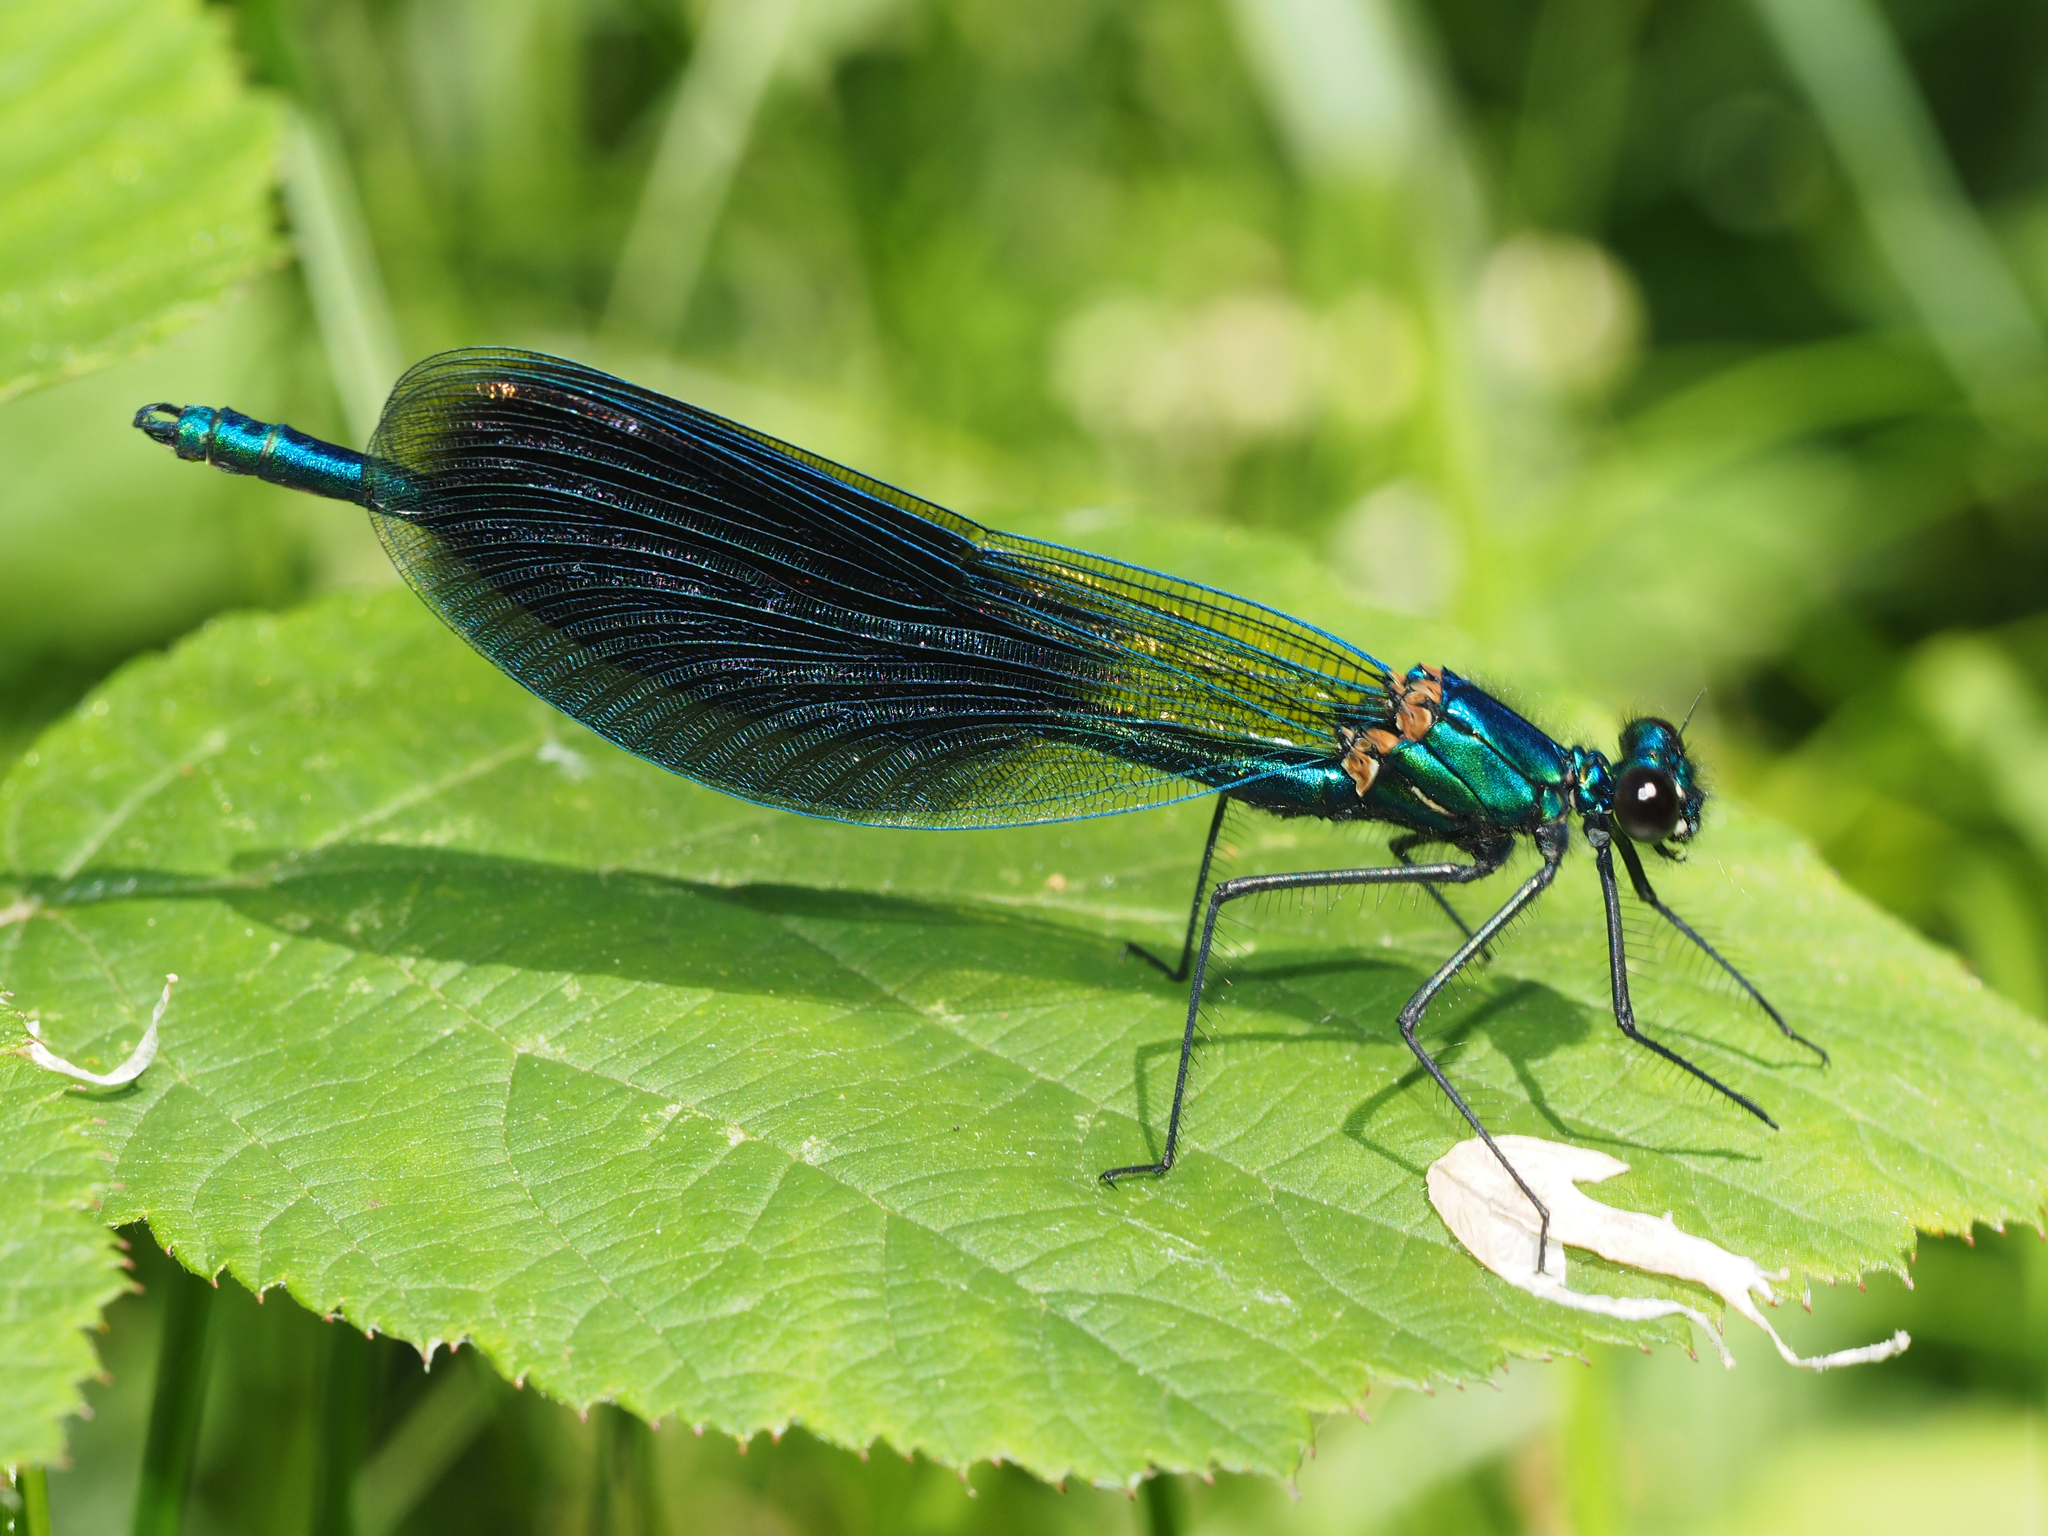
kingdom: Animalia
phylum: Arthropoda
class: Insecta
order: Odonata
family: Calopterygidae
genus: Calopteryx
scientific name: Calopteryx splendens
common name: Banded demoiselle
